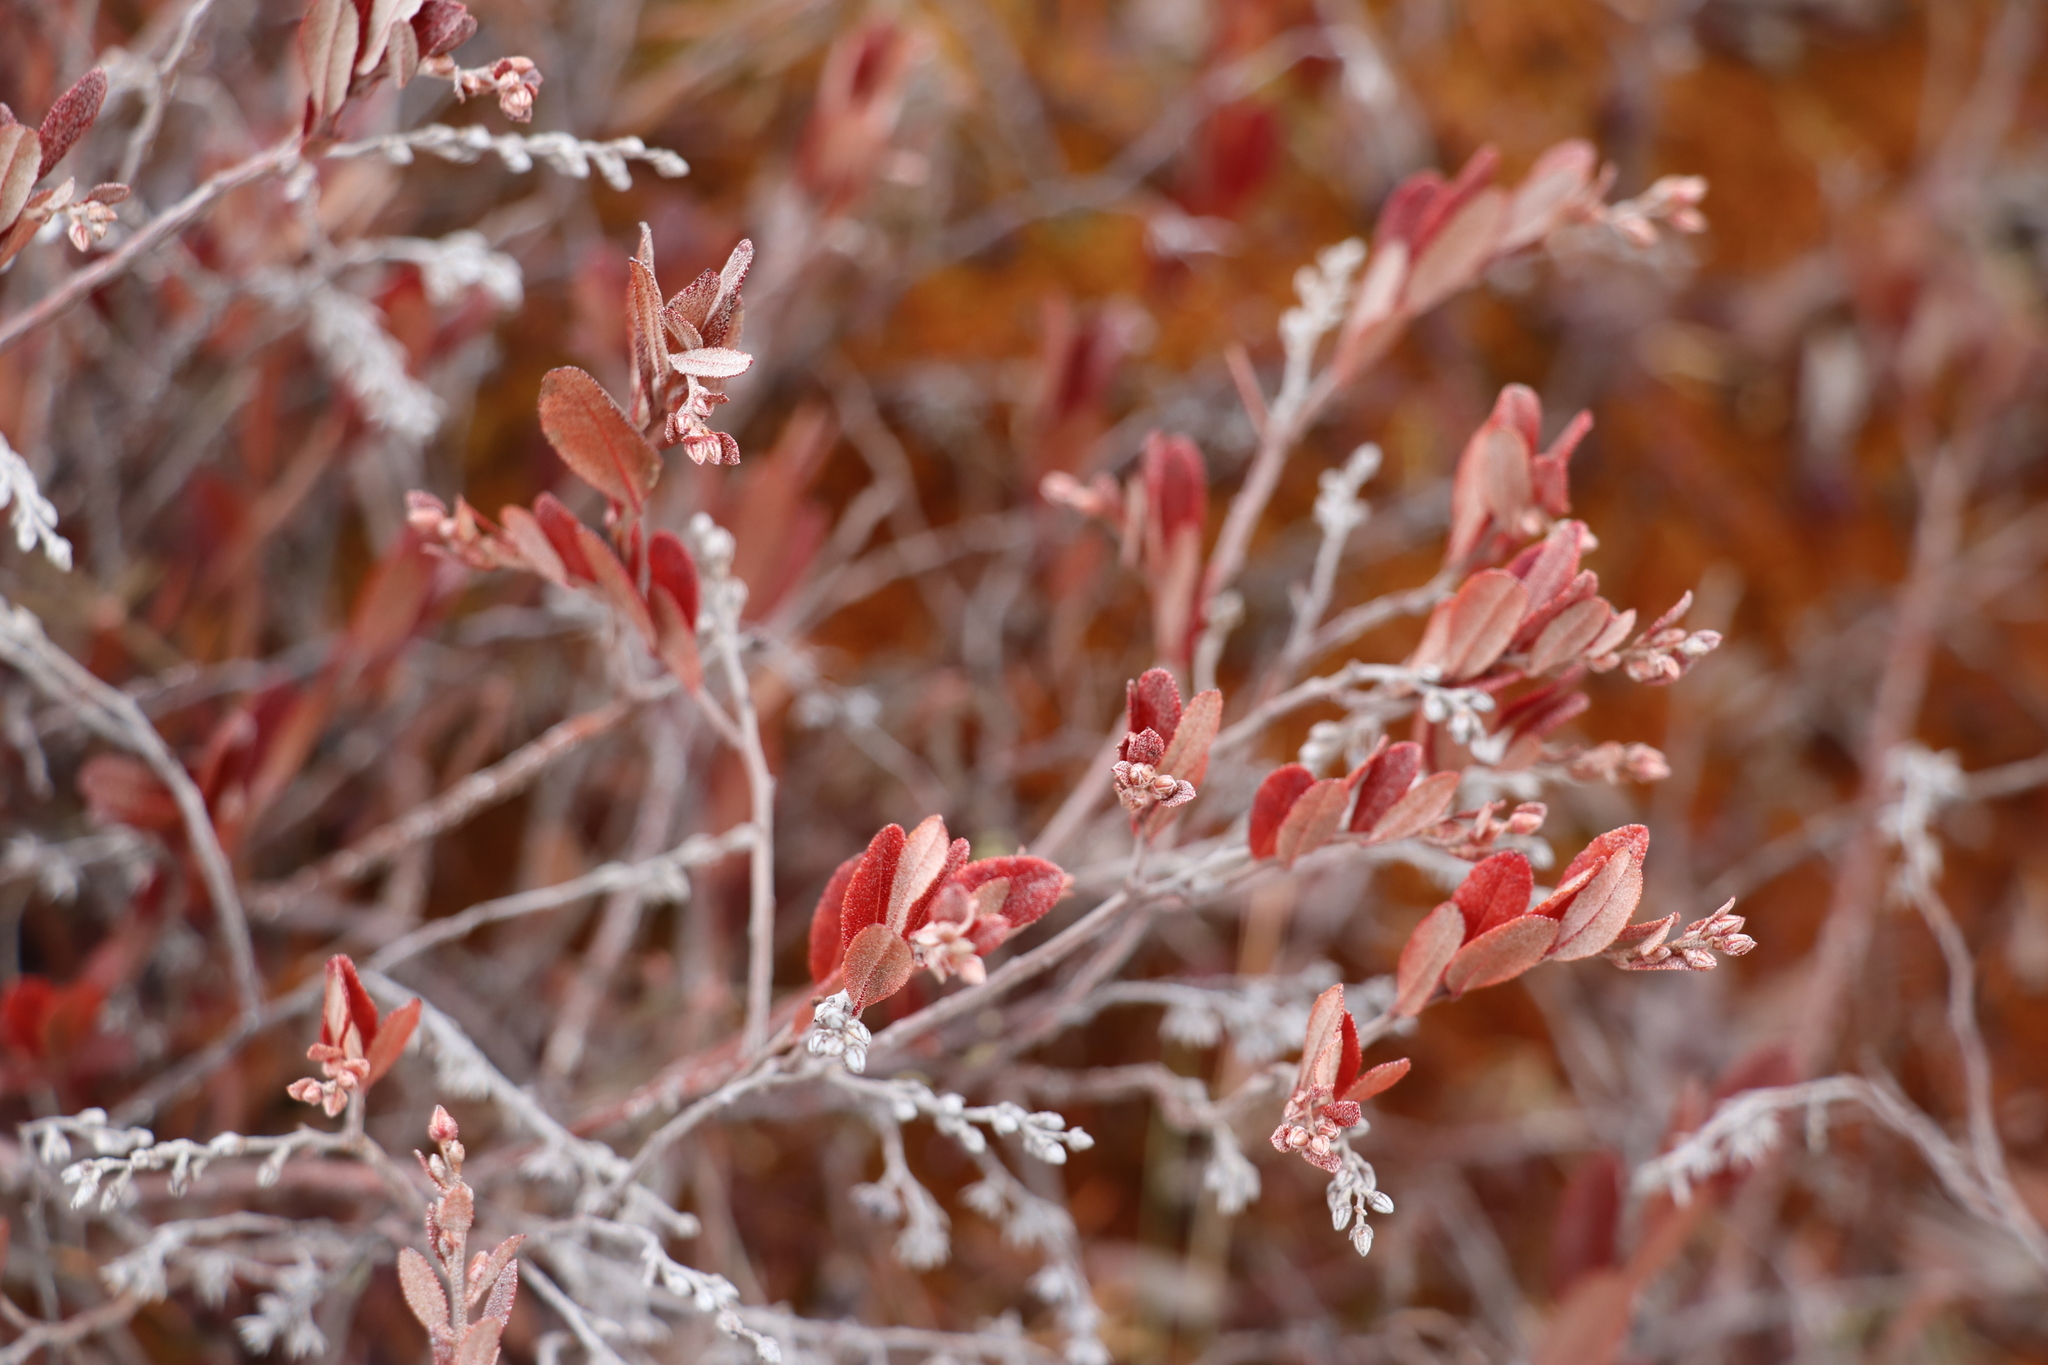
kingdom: Plantae
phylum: Tracheophyta
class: Magnoliopsida
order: Ericales
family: Ericaceae
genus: Chamaedaphne
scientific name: Chamaedaphne calyculata
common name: Leatherleaf
